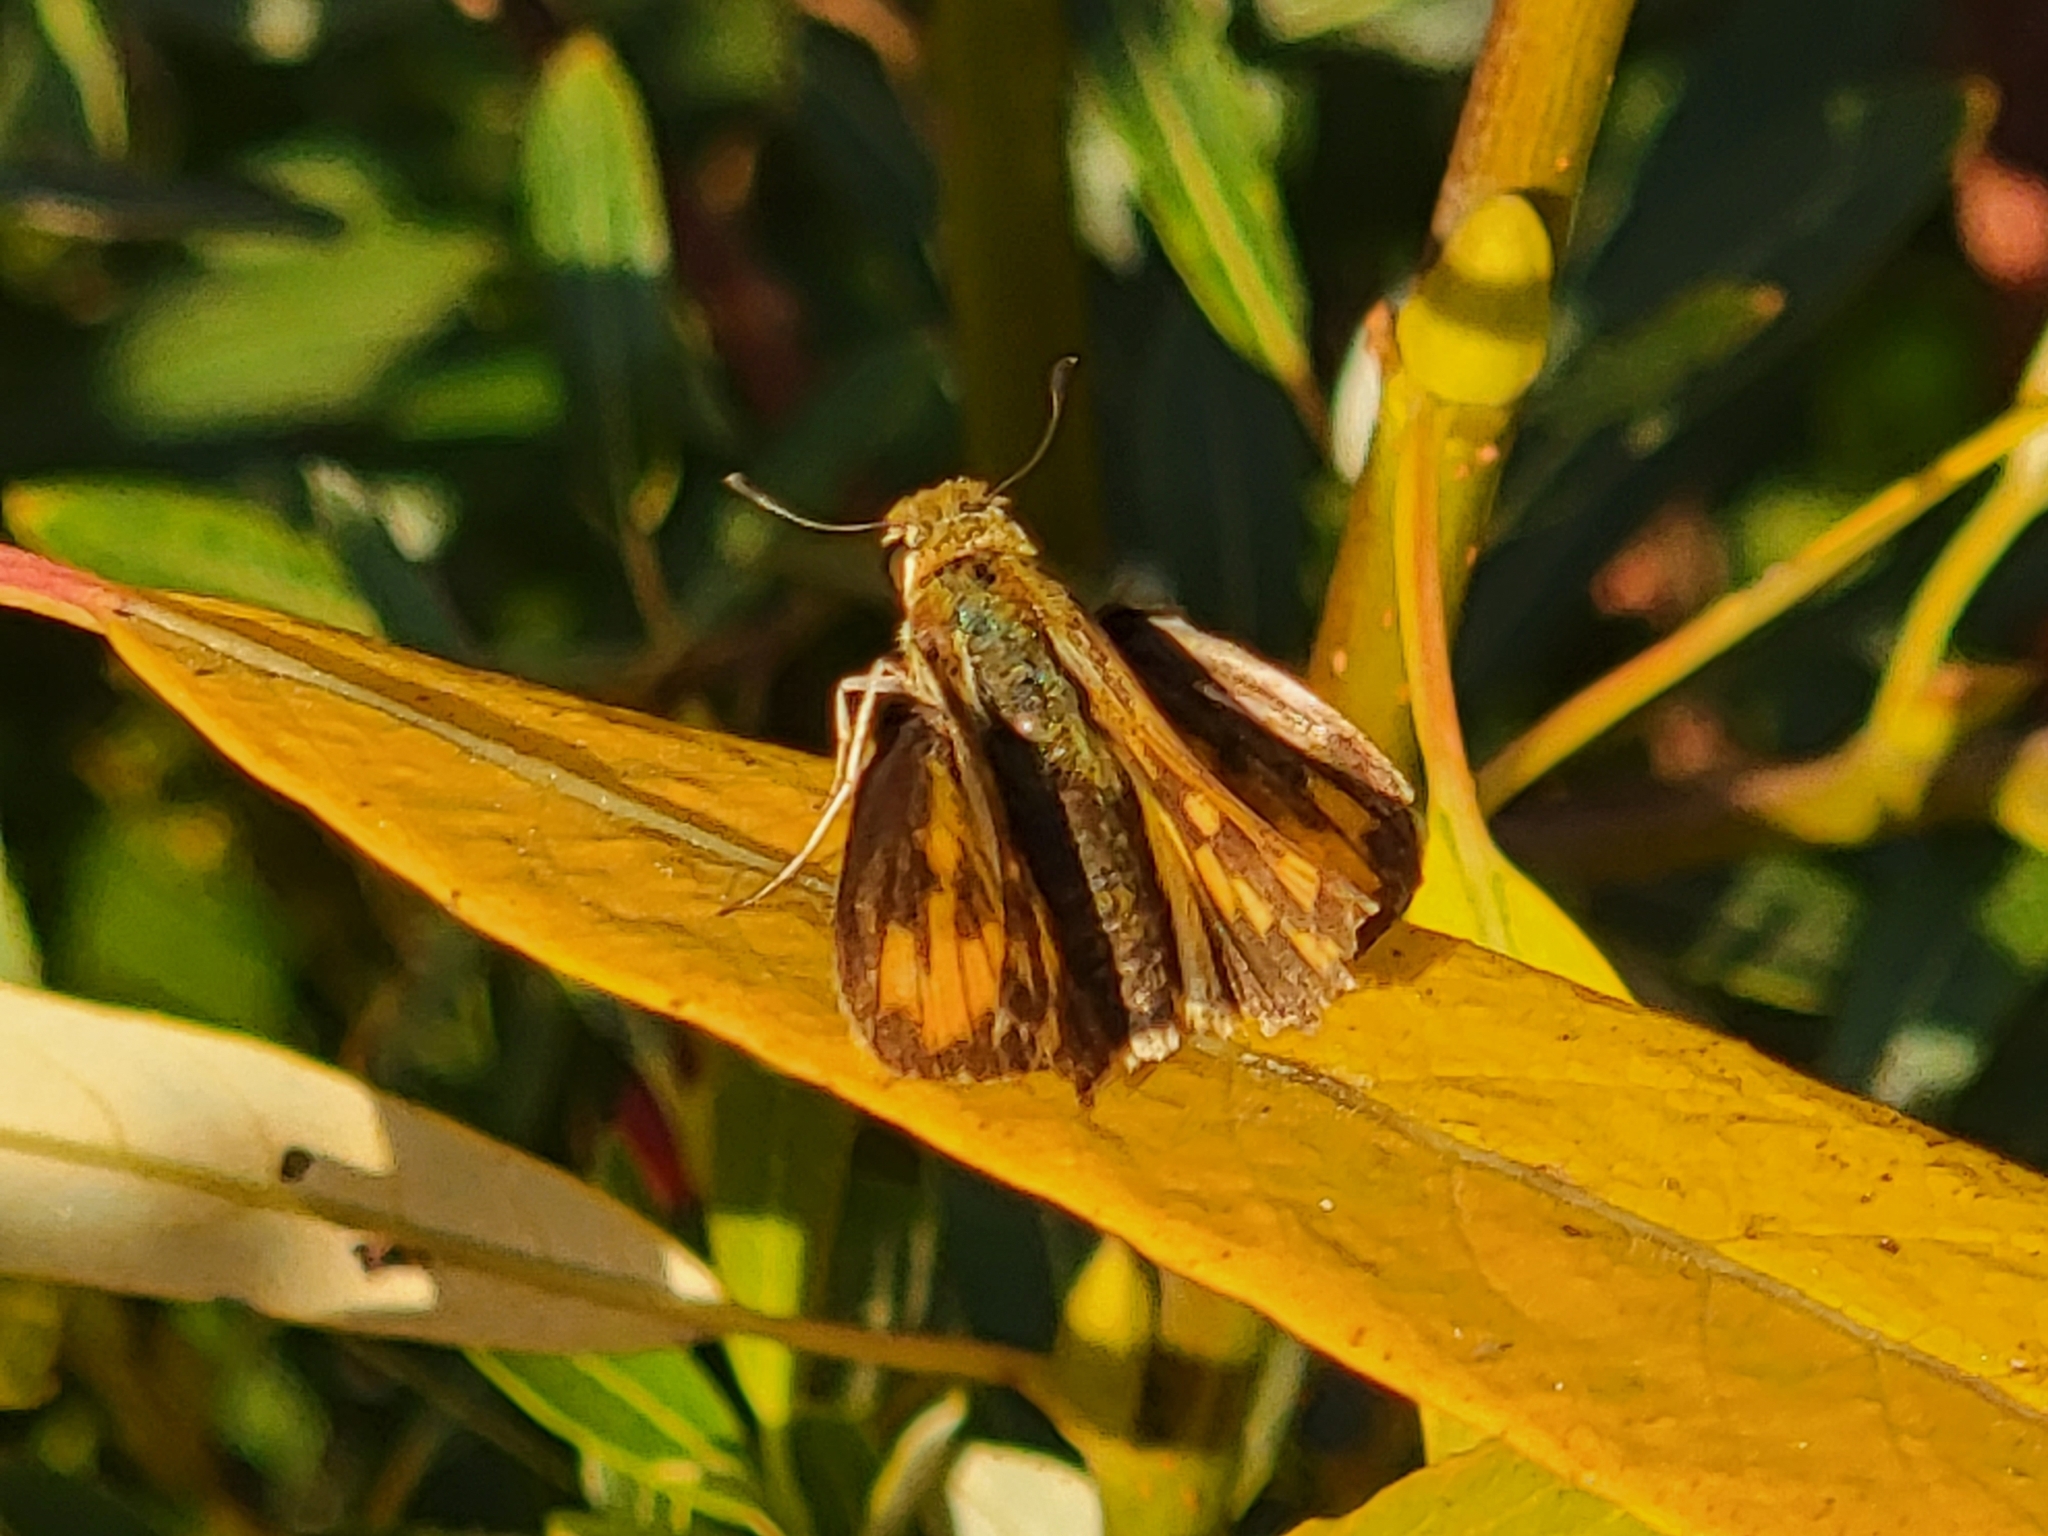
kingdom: Animalia
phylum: Arthropoda
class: Insecta
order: Lepidoptera
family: Hesperiidae
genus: Hylephila
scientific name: Hylephila phyleus
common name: Fiery skipper
